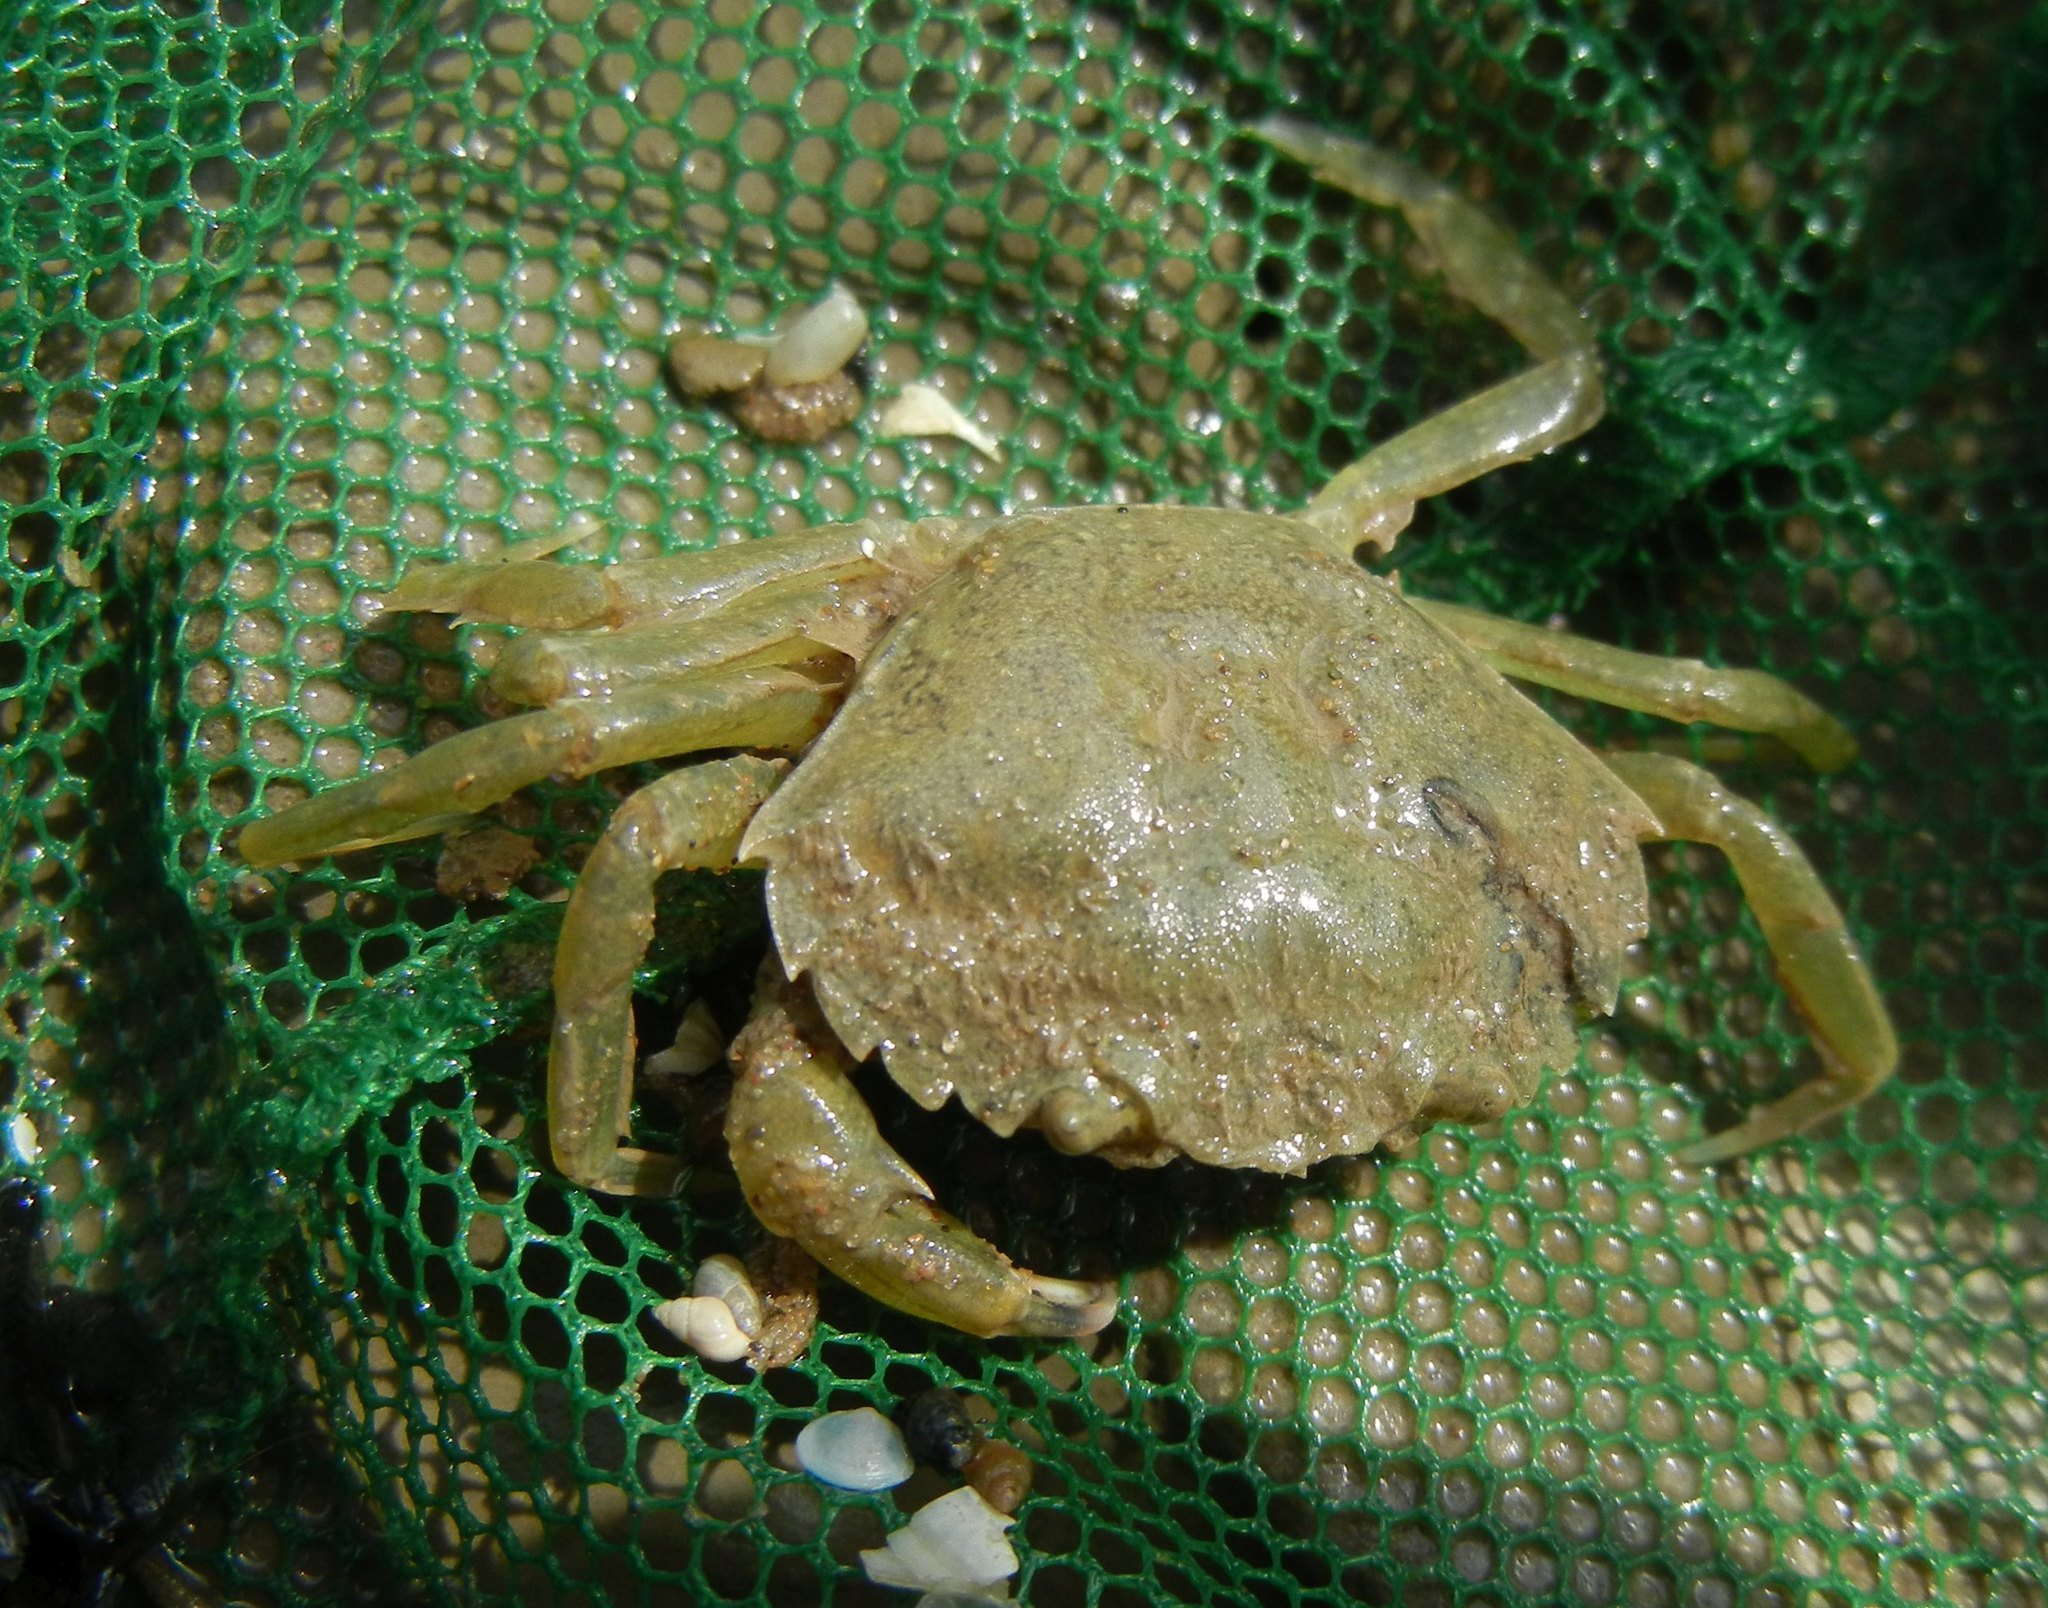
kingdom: Animalia
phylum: Arthropoda
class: Malacostraca
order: Decapoda
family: Carcinidae
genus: Carcinus
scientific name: Carcinus maenas
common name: European green crab
